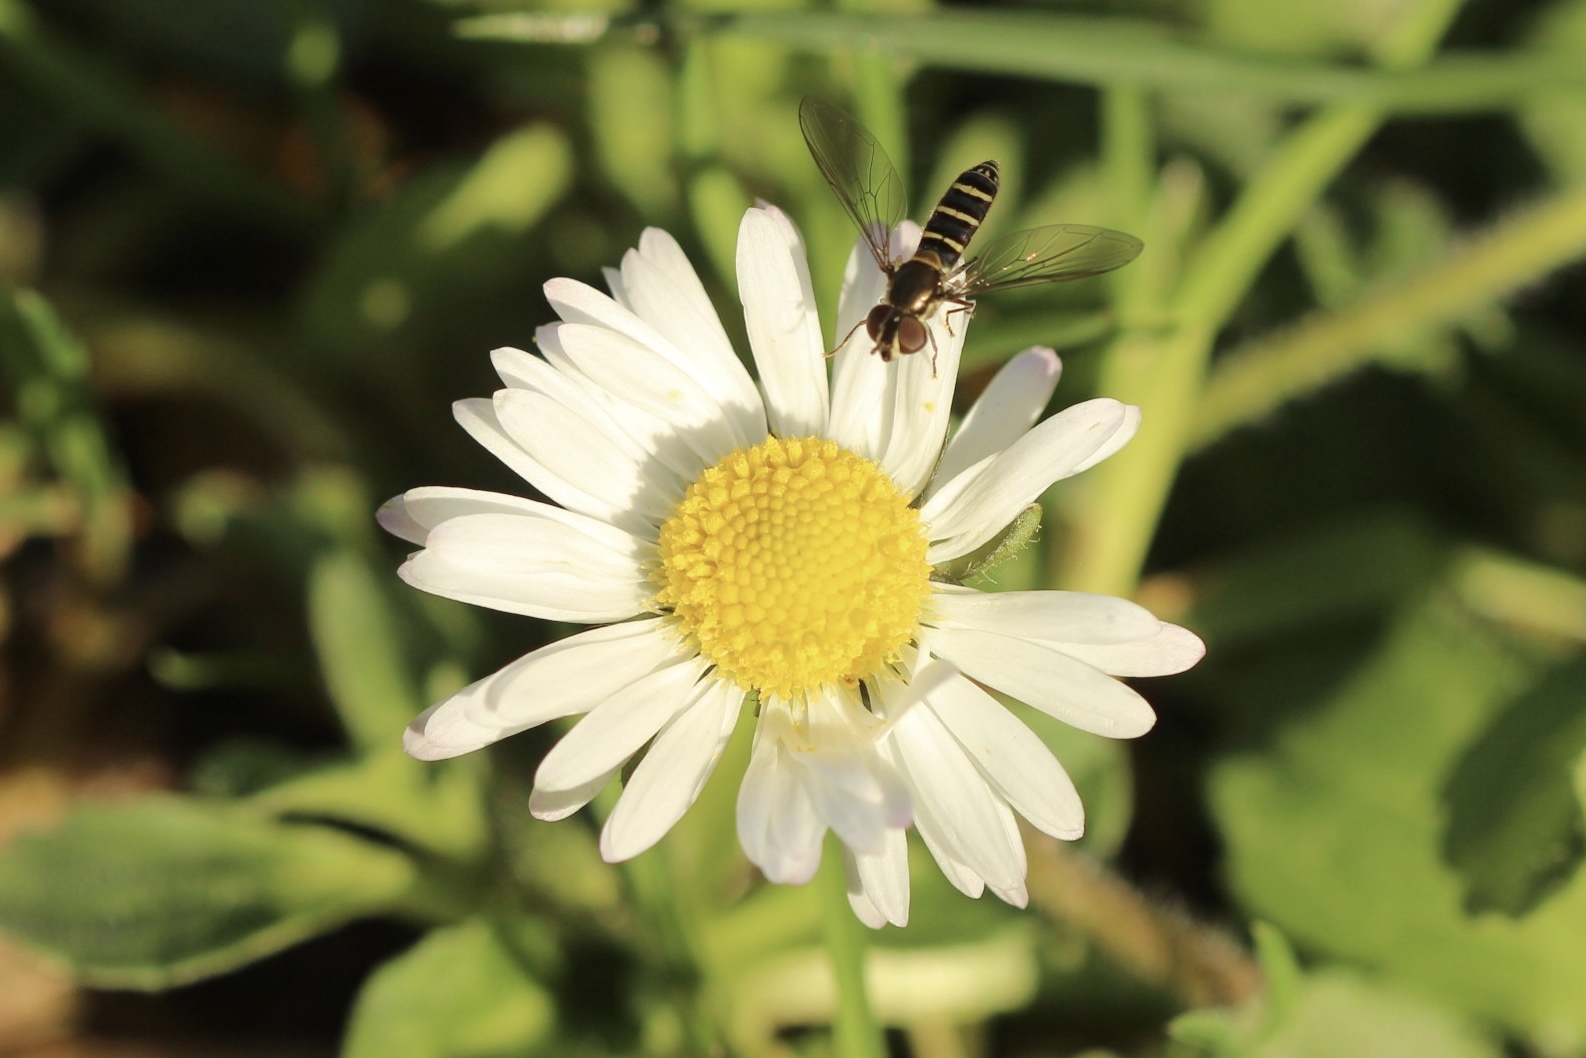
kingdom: Animalia
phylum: Arthropoda
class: Insecta
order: Diptera
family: Syrphidae
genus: Fazia
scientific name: Fazia micrura
